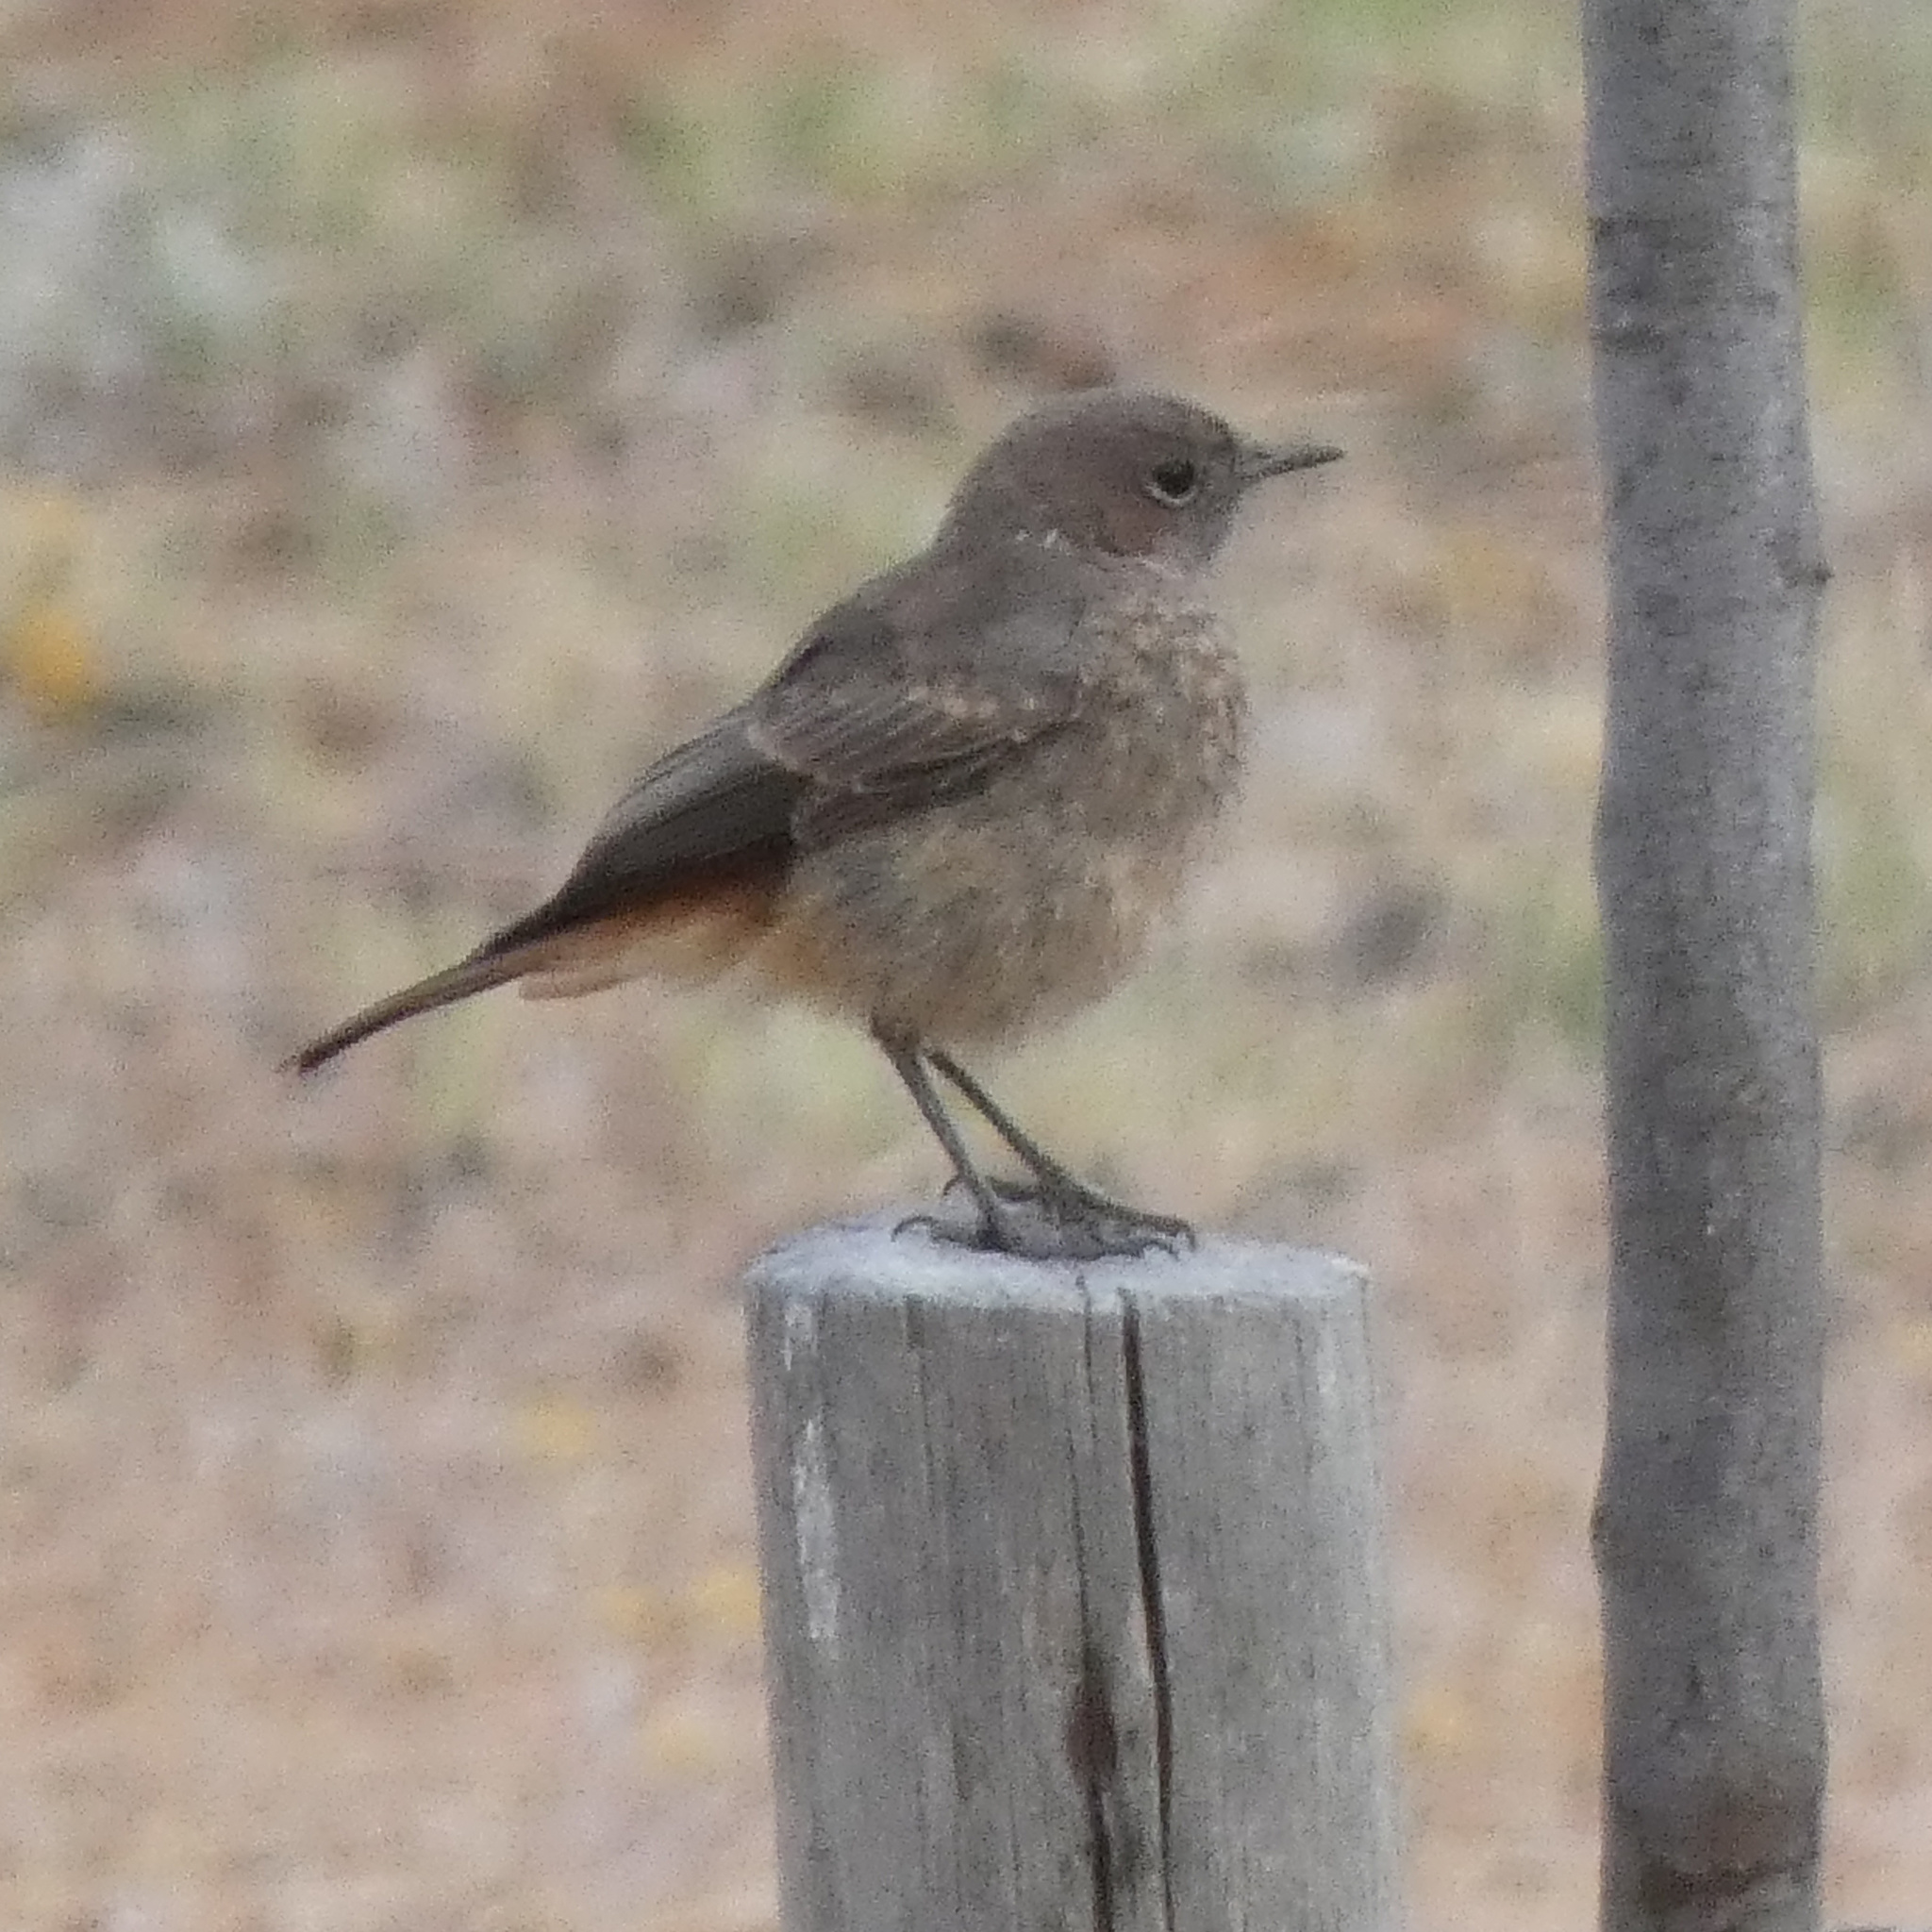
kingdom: Animalia
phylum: Chordata
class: Aves
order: Passeriformes
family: Muscicapidae
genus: Oenanthe
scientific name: Oenanthe familiaris
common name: Familiar chat
